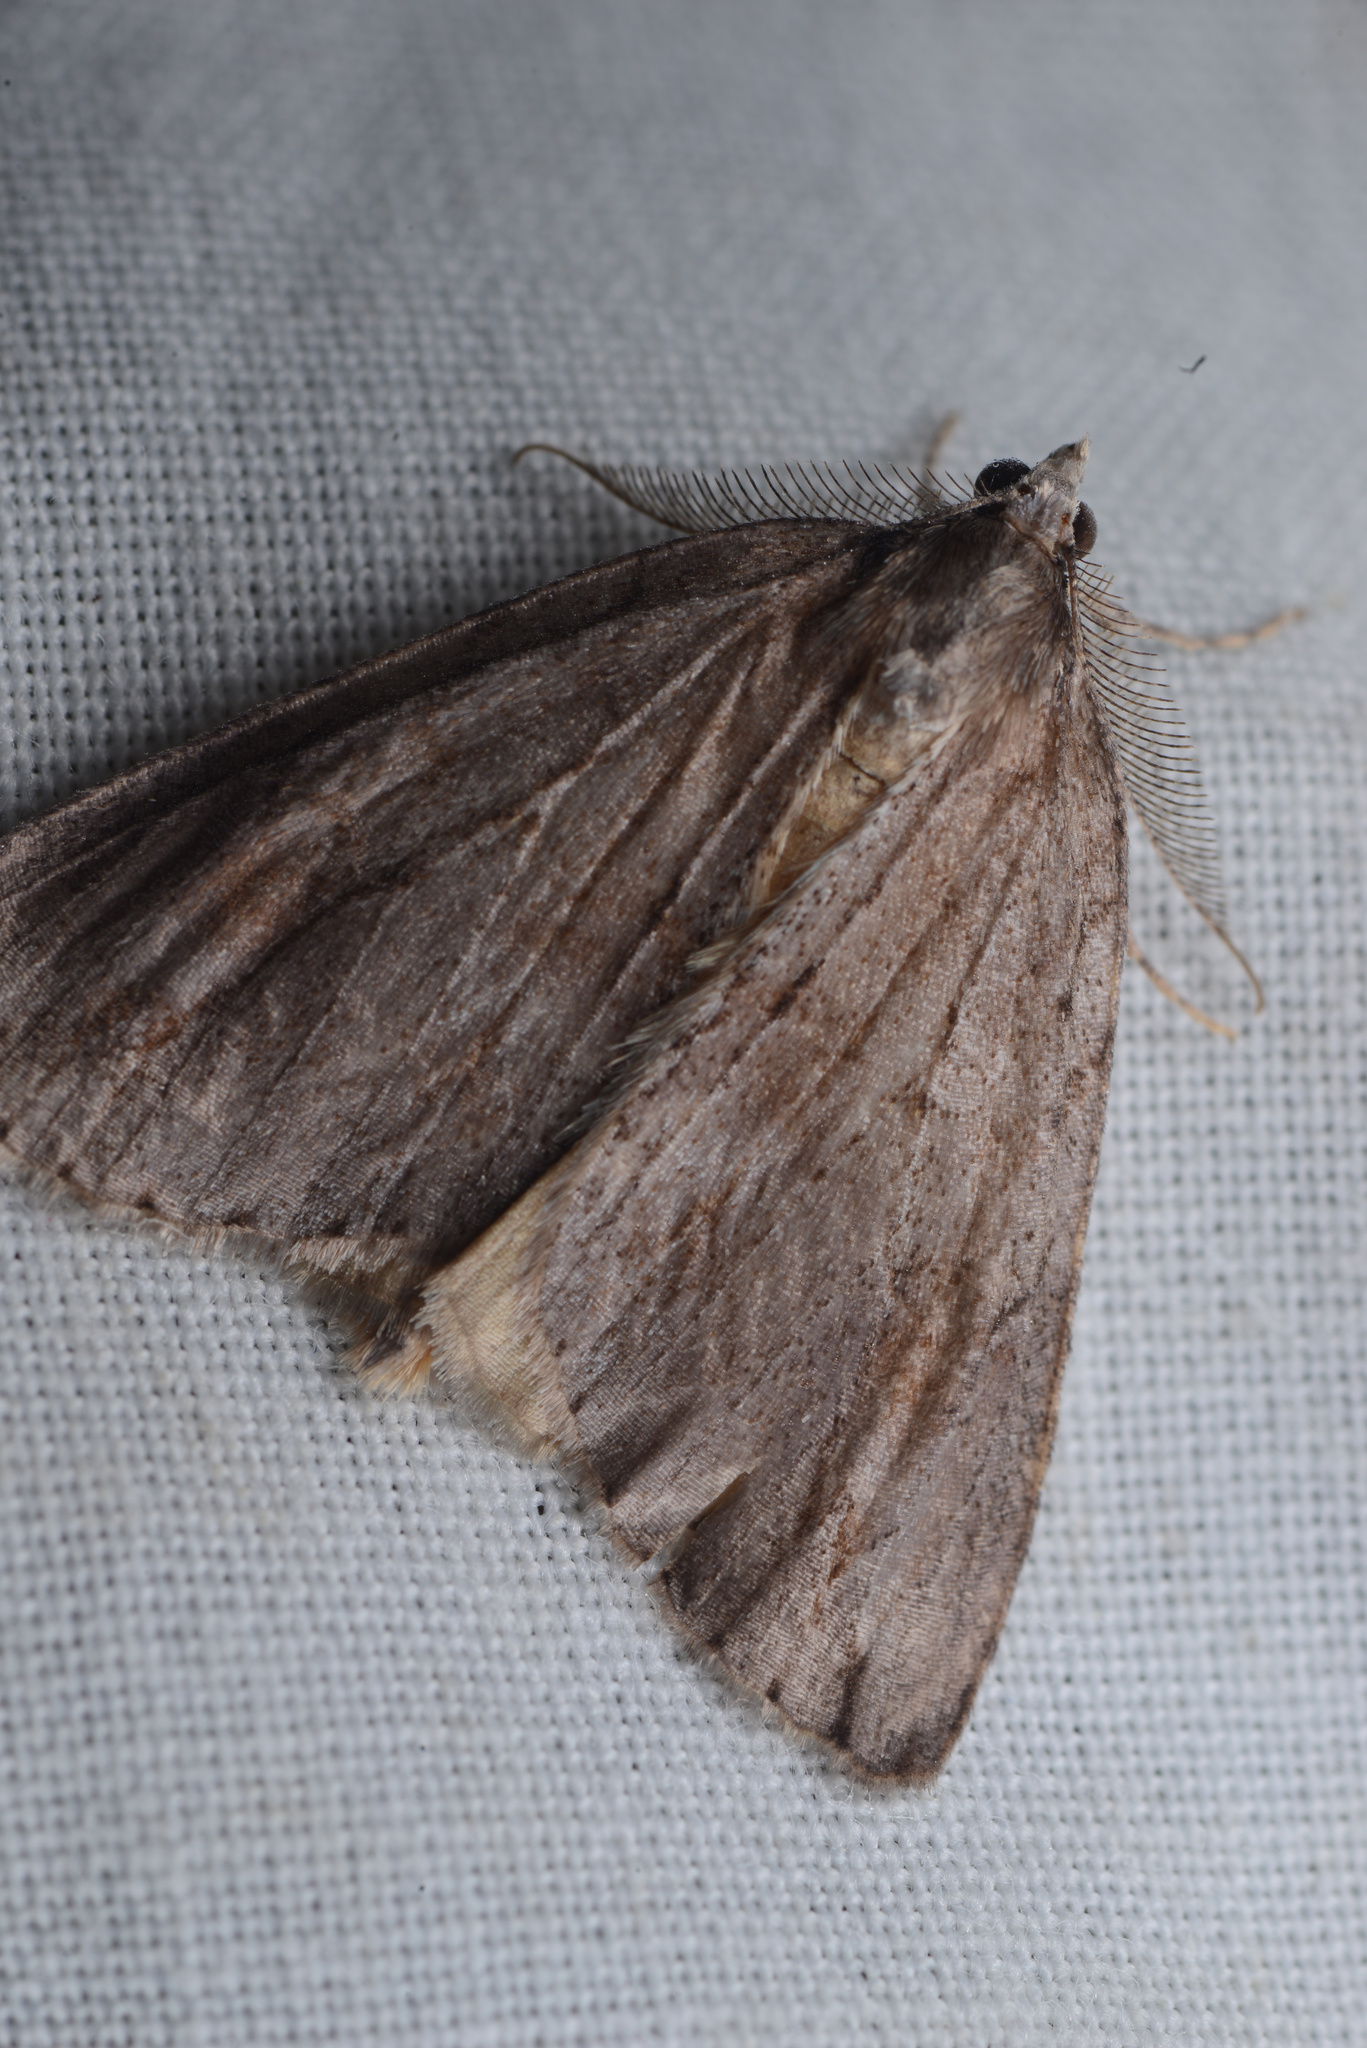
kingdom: Animalia
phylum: Arthropoda
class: Insecta
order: Lepidoptera
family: Geometridae
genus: Pseudocoremia
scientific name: Pseudocoremia lupinata
